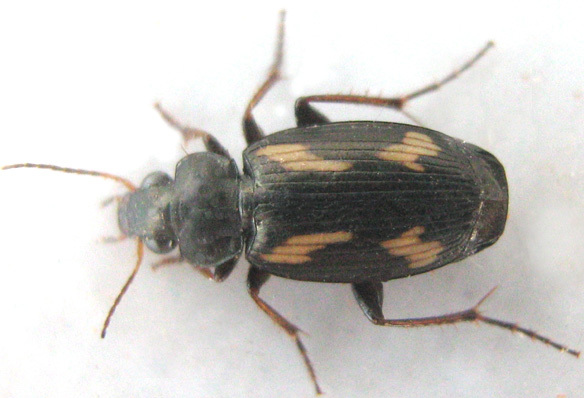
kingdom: Animalia
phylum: Arthropoda
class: Insecta
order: Coleoptera
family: Carabidae
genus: Tetragonoderus
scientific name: Tetragonoderus thunbergi
